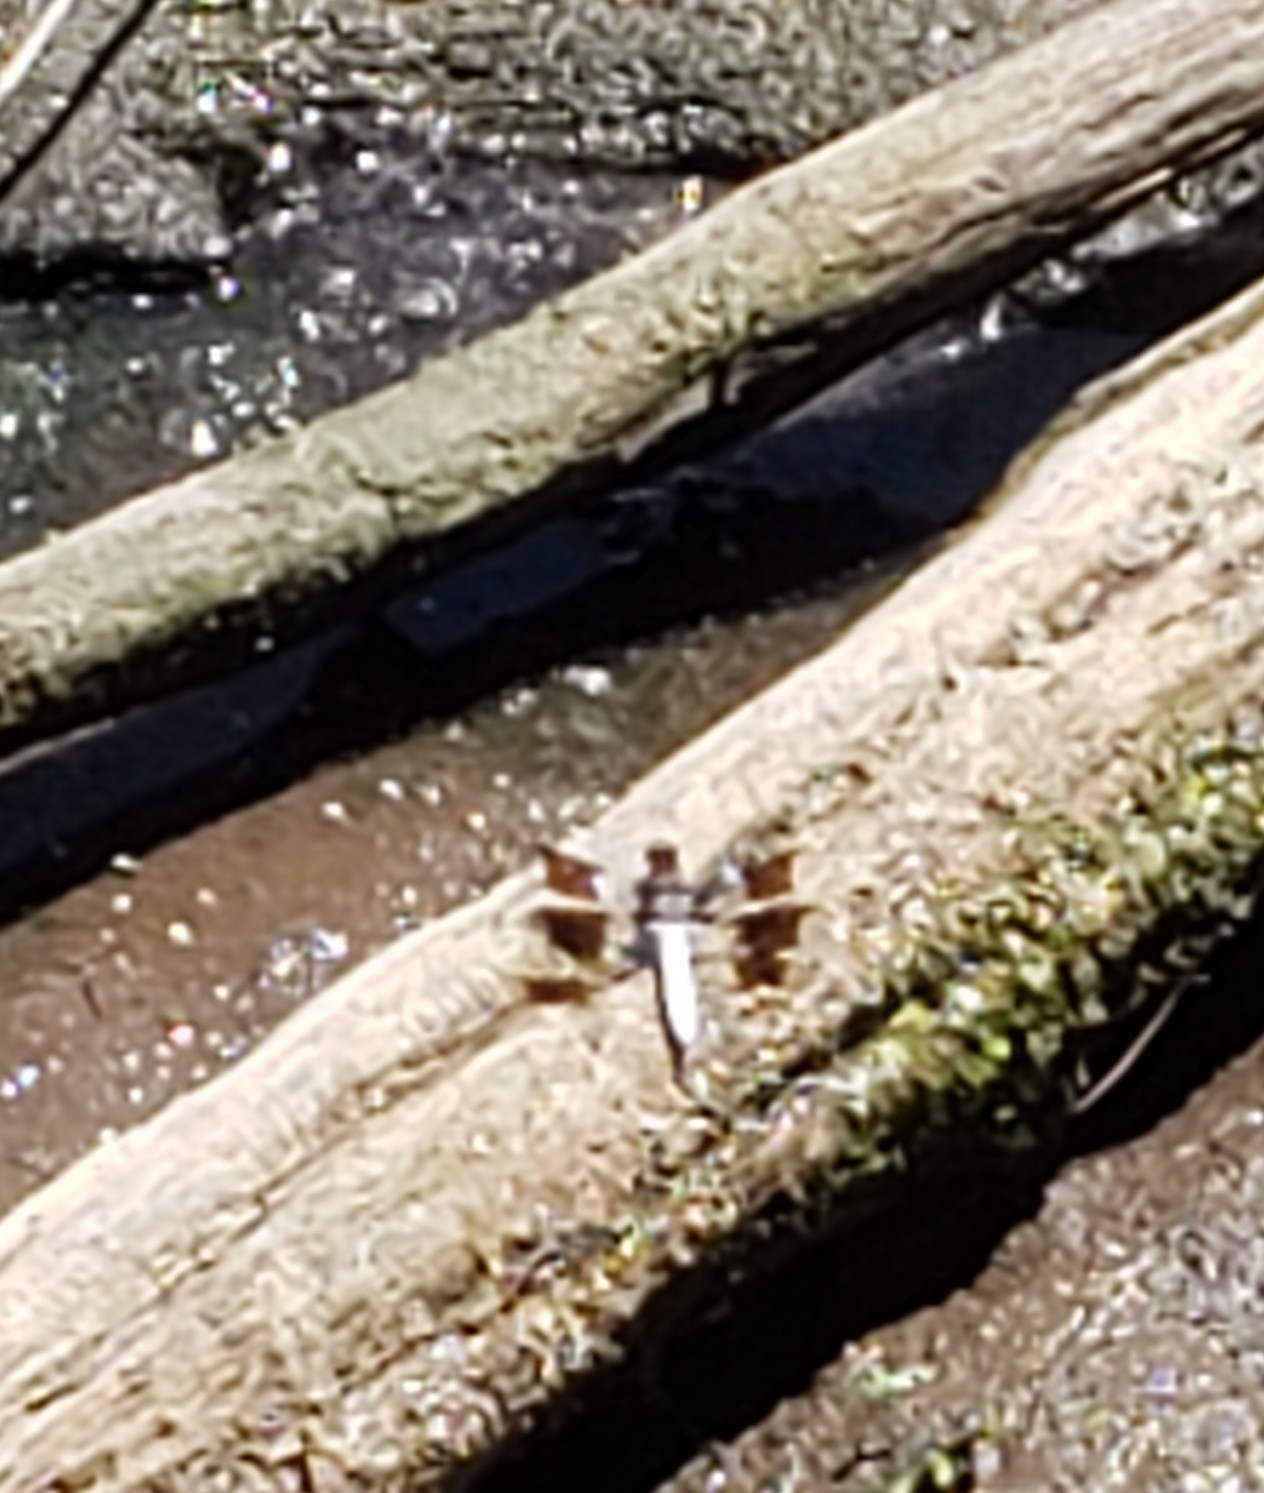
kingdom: Animalia
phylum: Arthropoda
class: Insecta
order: Odonata
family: Libellulidae
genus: Plathemis
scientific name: Plathemis lydia
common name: Common whitetail
